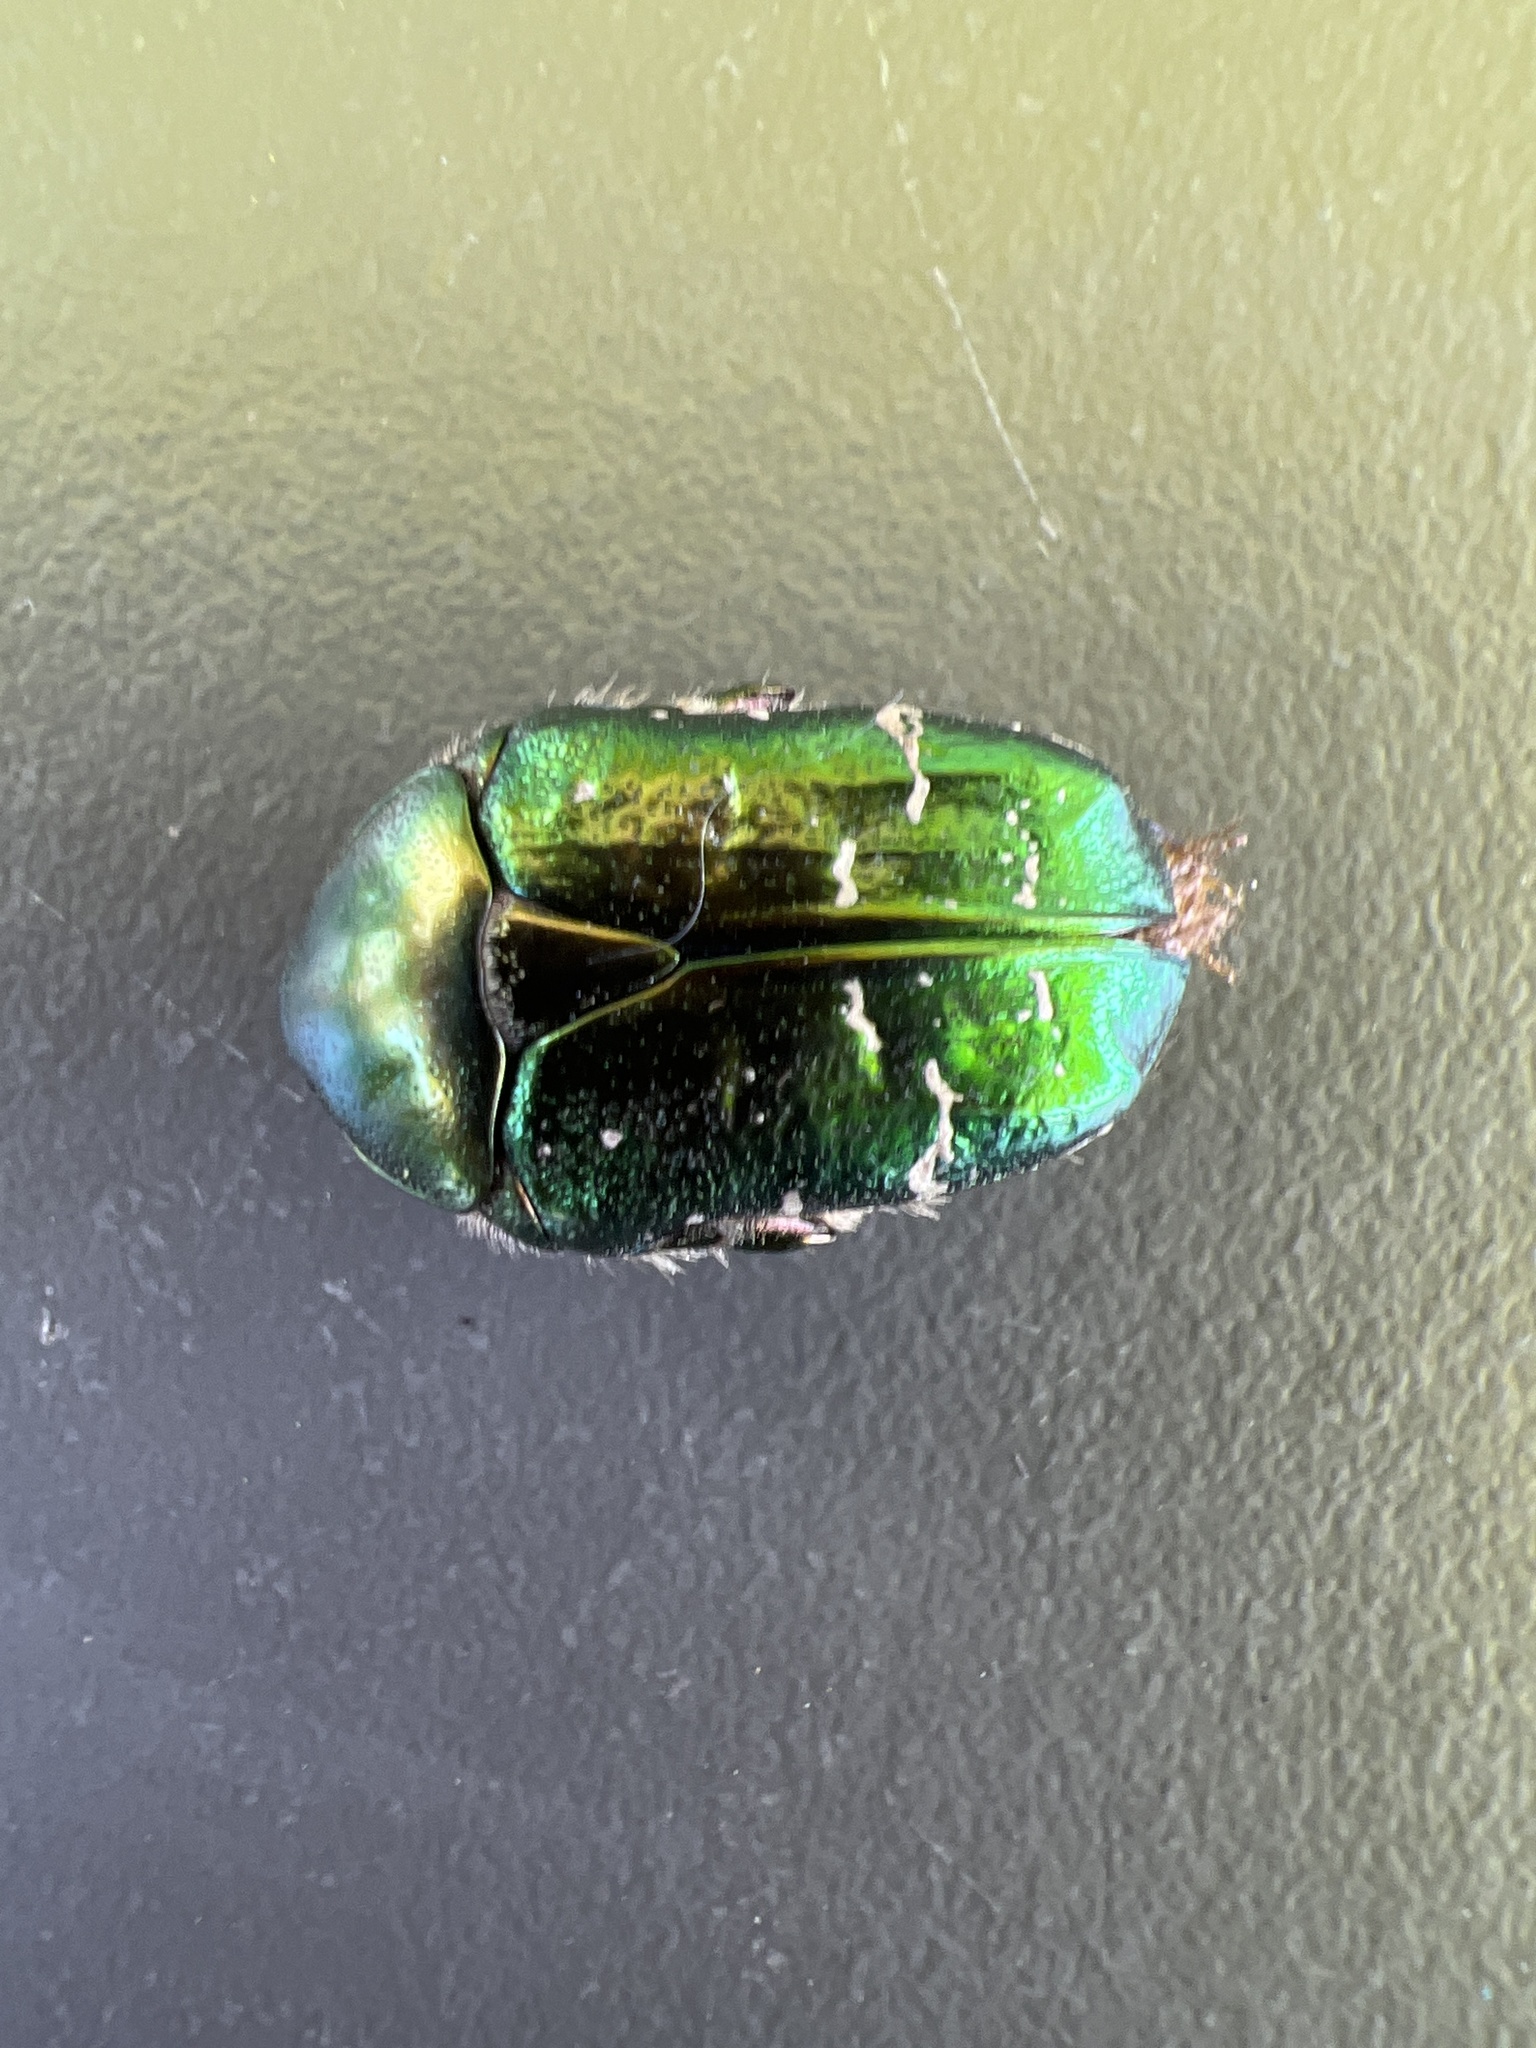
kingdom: Animalia
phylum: Arthropoda
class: Insecta
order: Coleoptera
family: Scarabaeidae
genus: Cetonia
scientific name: Cetonia aurata
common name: Rose chafer
